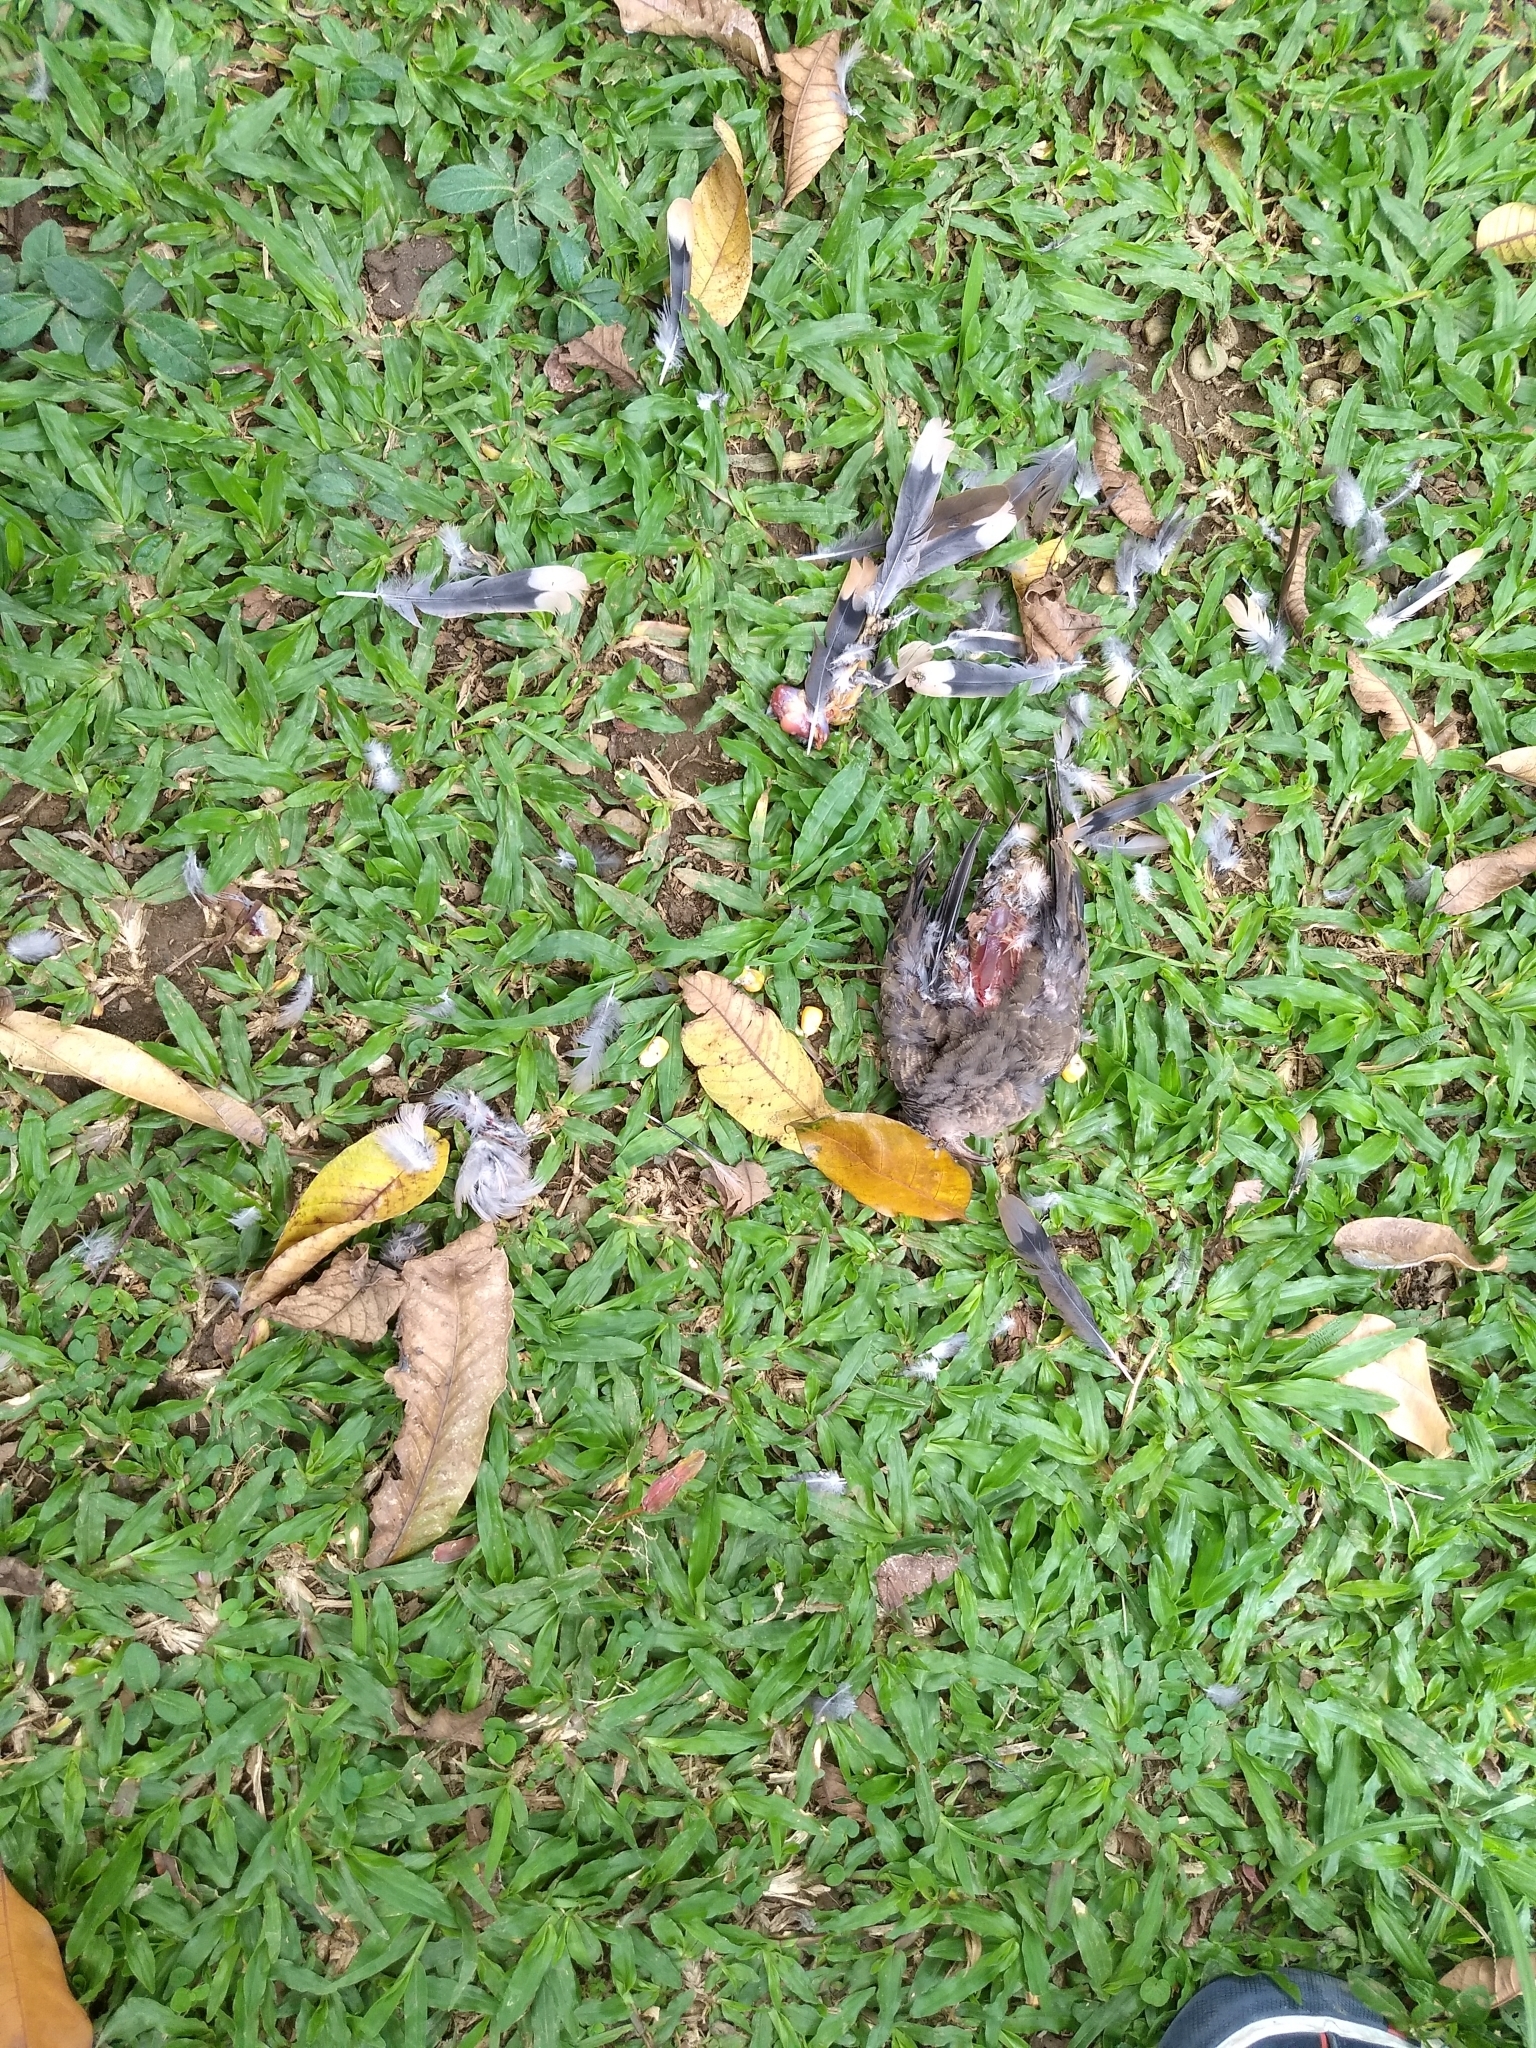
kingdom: Animalia
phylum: Chordata
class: Aves
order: Columbiformes
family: Columbidae
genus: Zenaida
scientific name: Zenaida auriculata
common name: Eared dove
